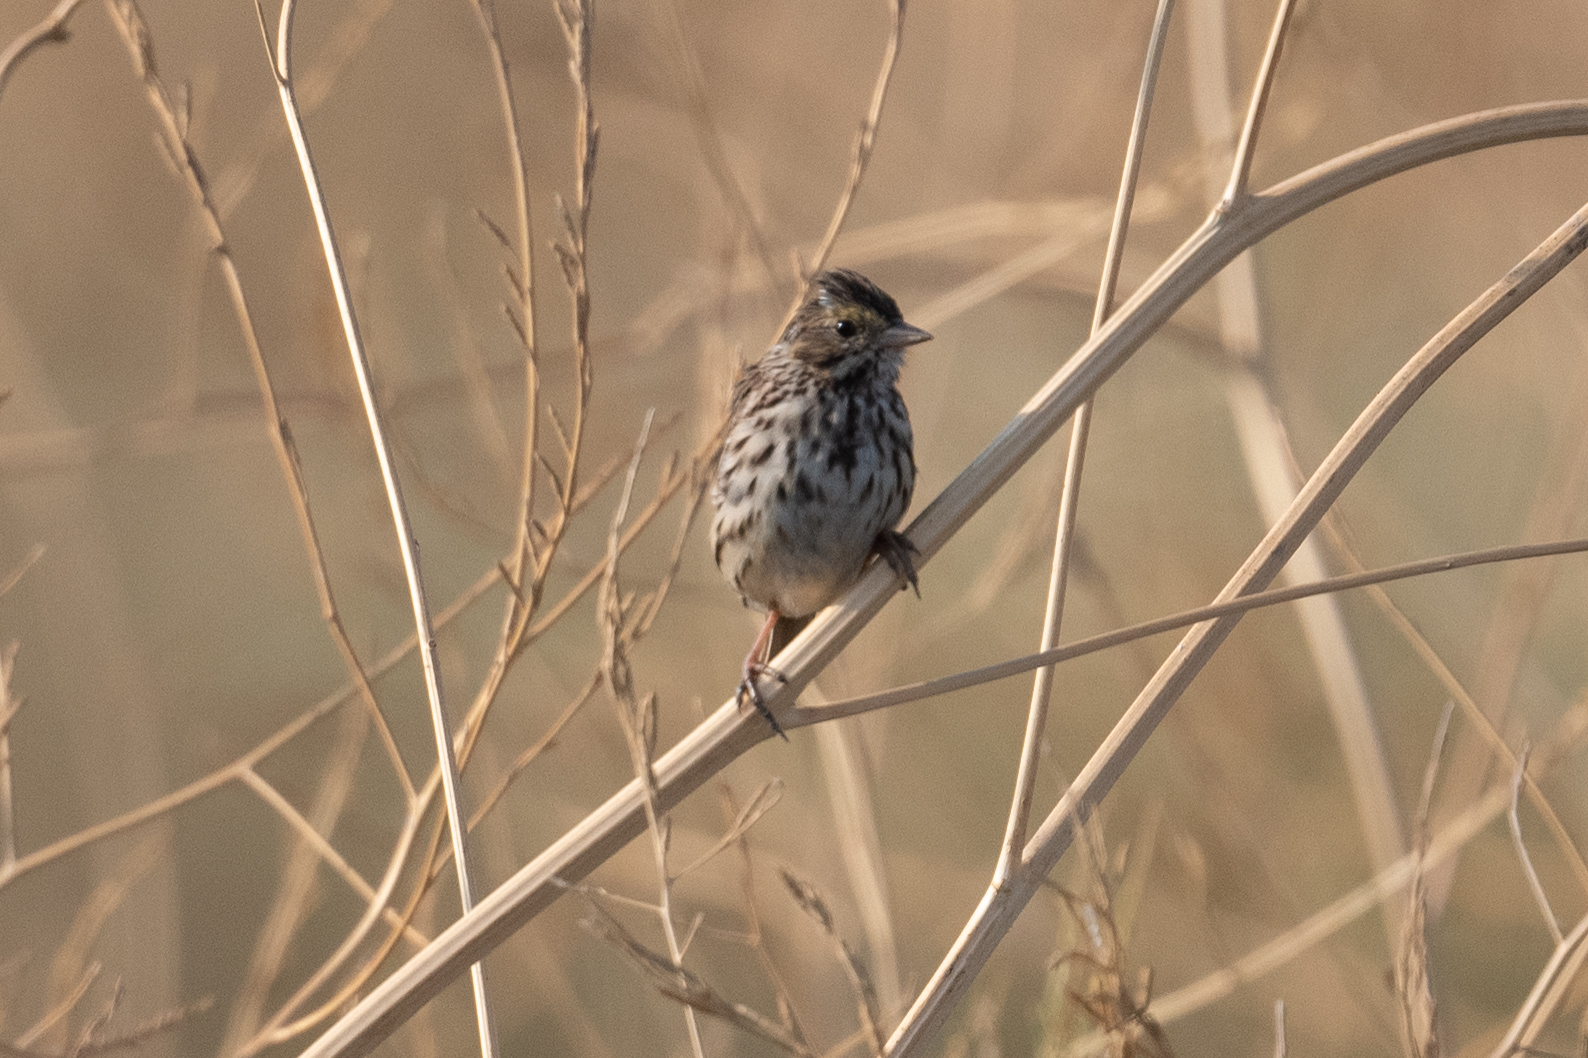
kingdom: Animalia
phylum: Chordata
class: Aves
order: Passeriformes
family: Passerellidae
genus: Passerculus
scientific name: Passerculus sandwichensis
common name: Savannah sparrow
